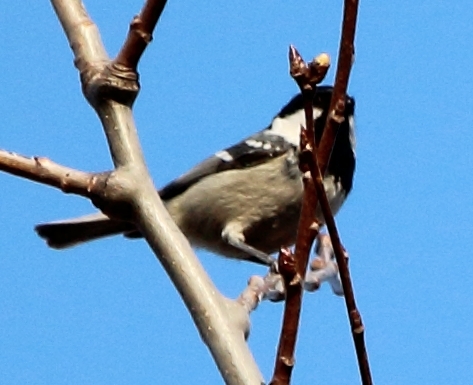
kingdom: Animalia
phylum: Chordata
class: Aves
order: Passeriformes
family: Paridae
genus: Periparus
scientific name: Periparus ater
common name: Coal tit
